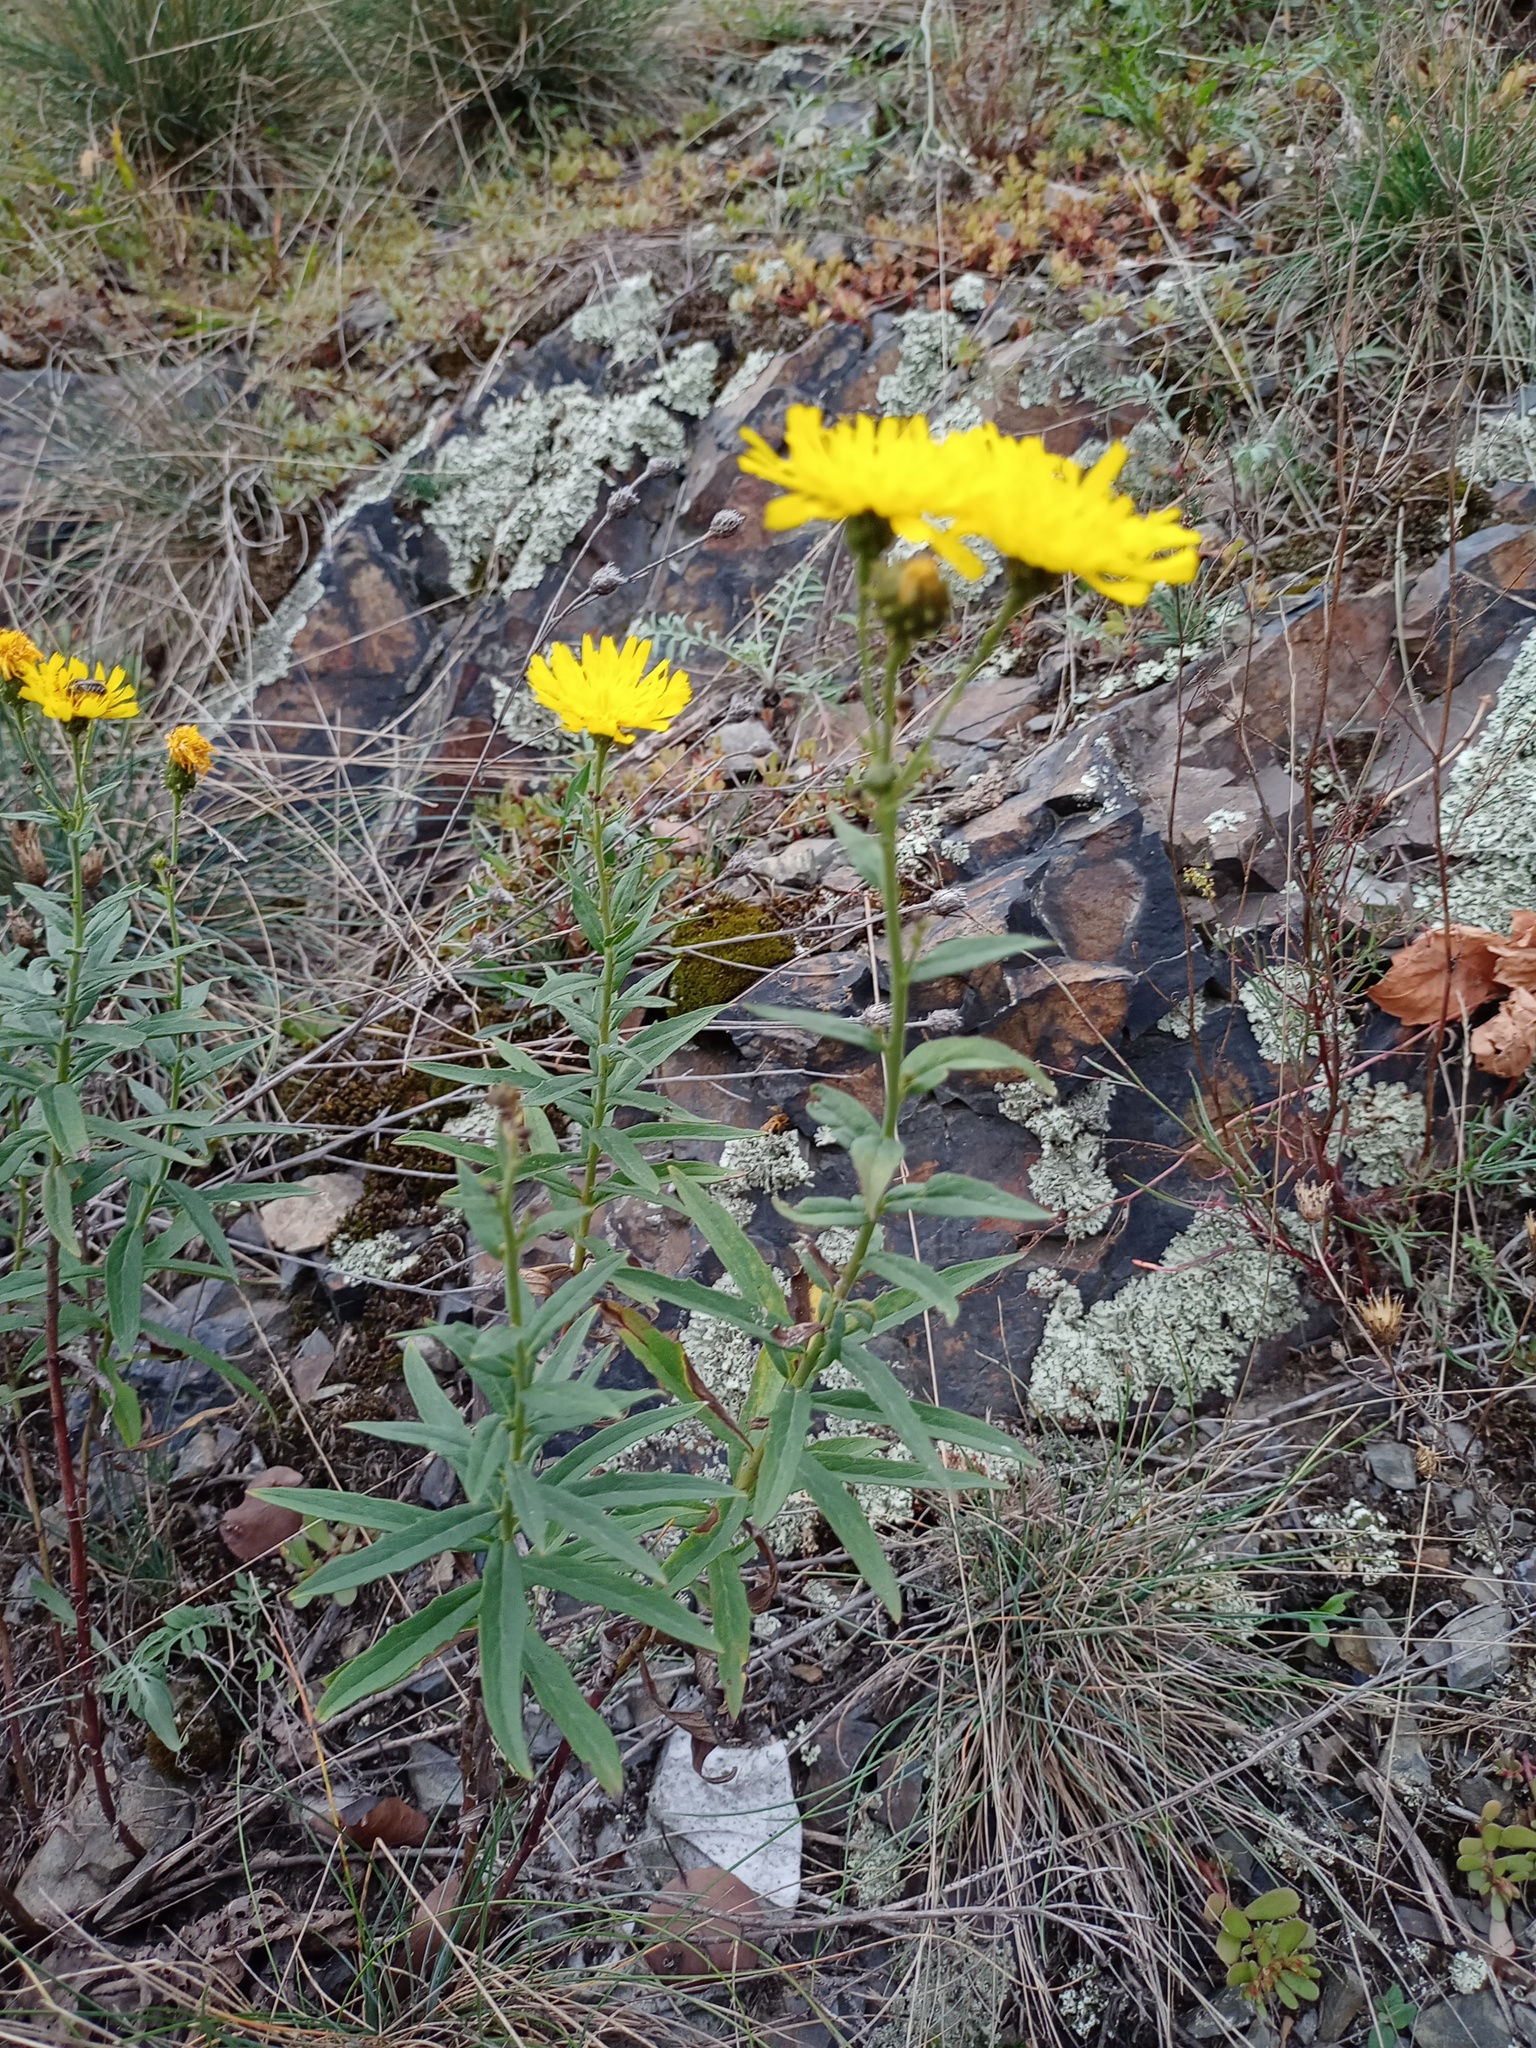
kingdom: Plantae
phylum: Tracheophyta
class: Magnoliopsida
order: Asterales
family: Asteraceae
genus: Hieracium
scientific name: Hieracium umbellatum
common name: Northern hawkweed
